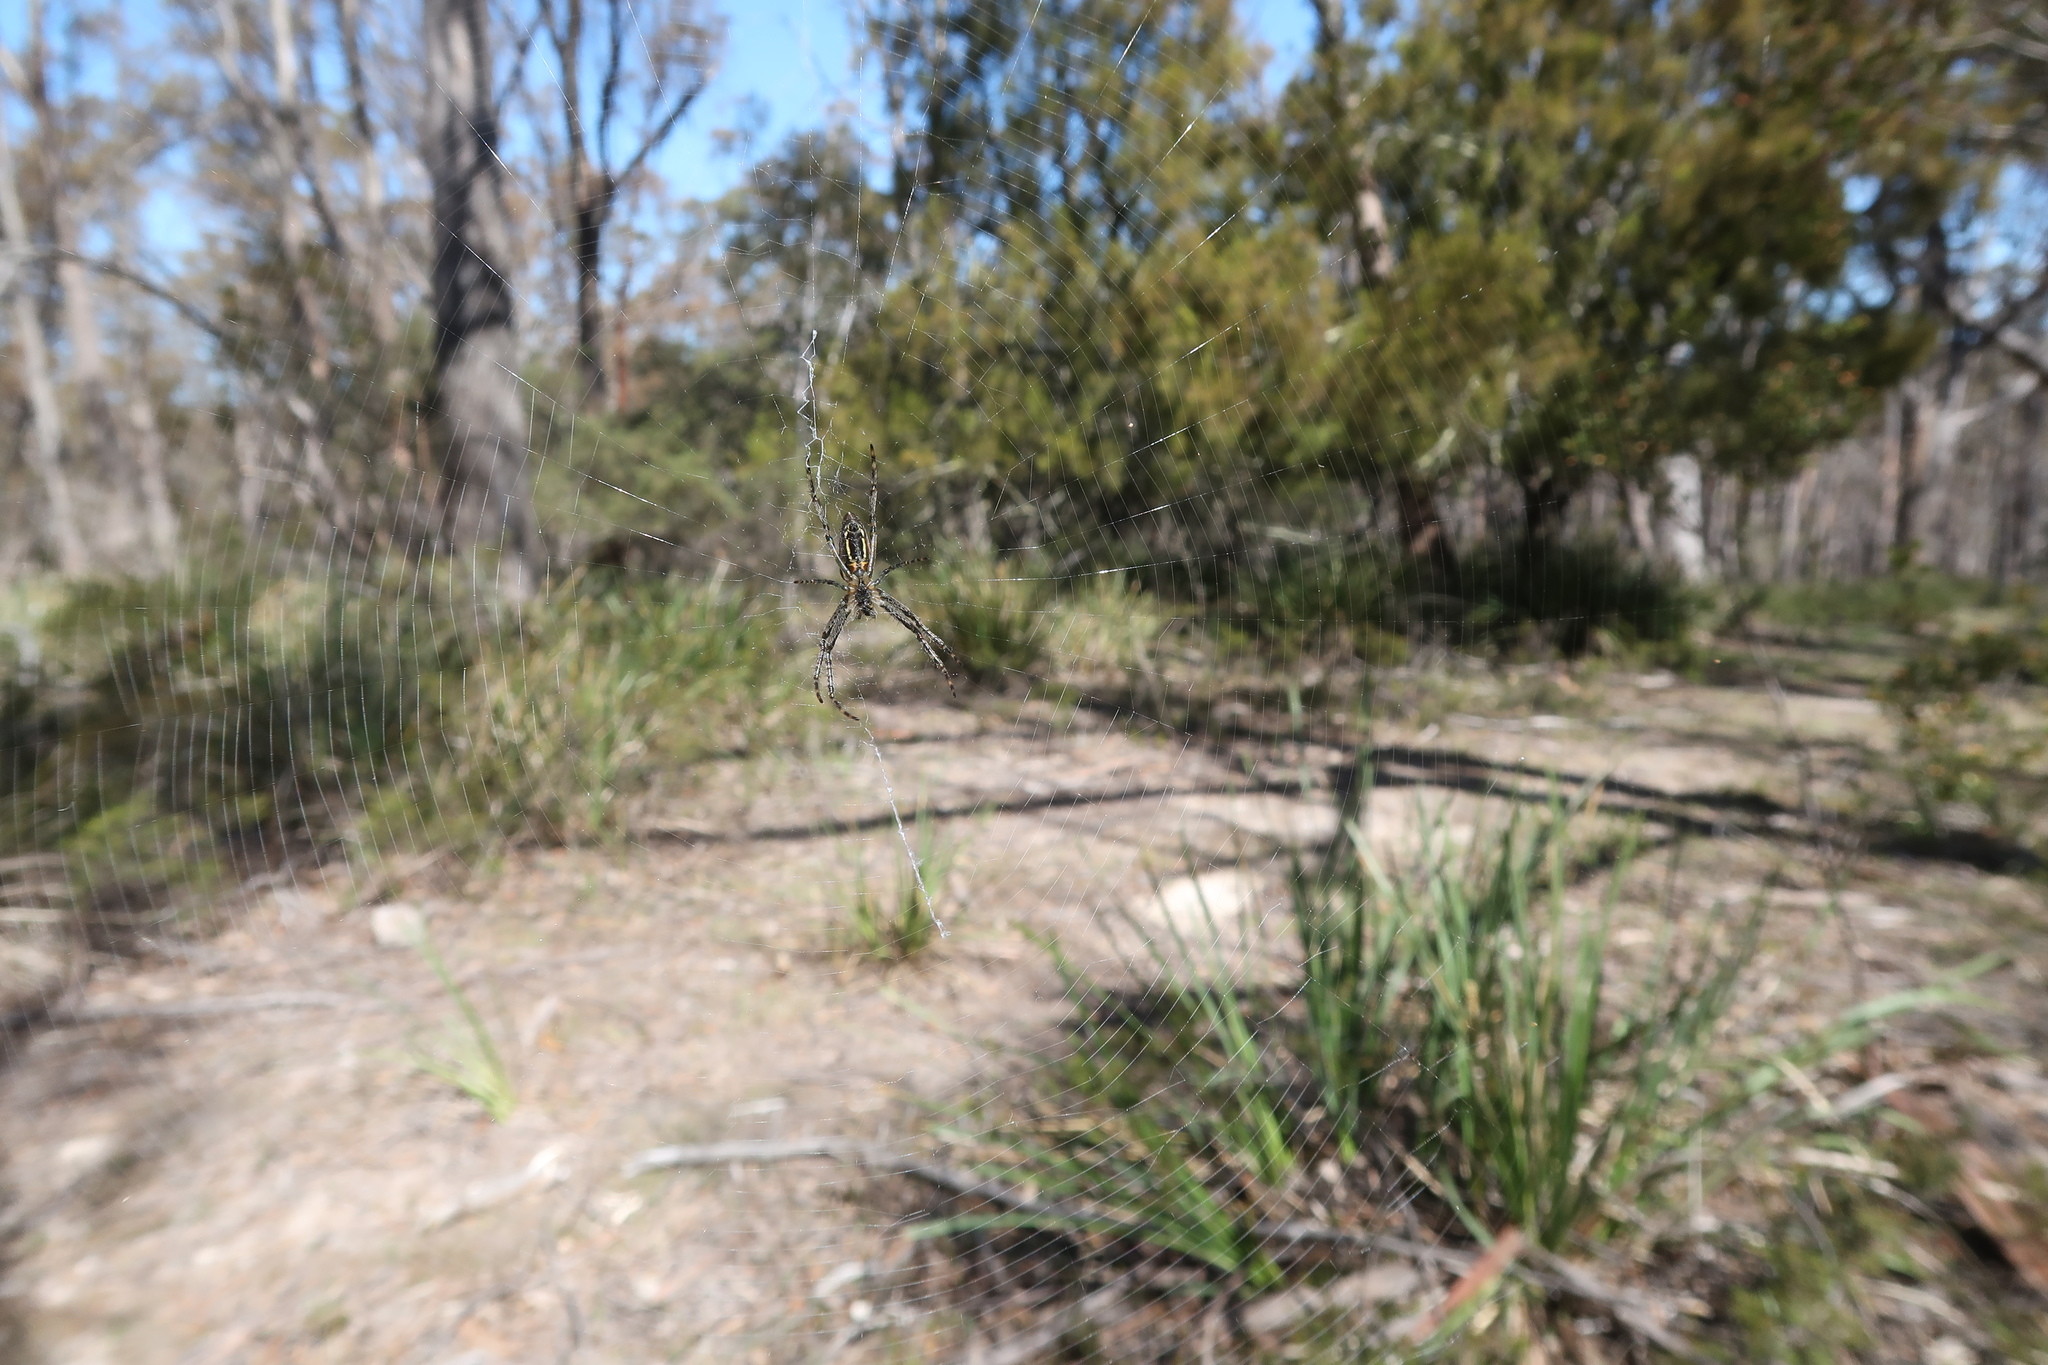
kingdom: Animalia
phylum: Arthropoda
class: Arachnida
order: Araneae
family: Araneidae
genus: Plebs
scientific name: Plebs bradleyi
